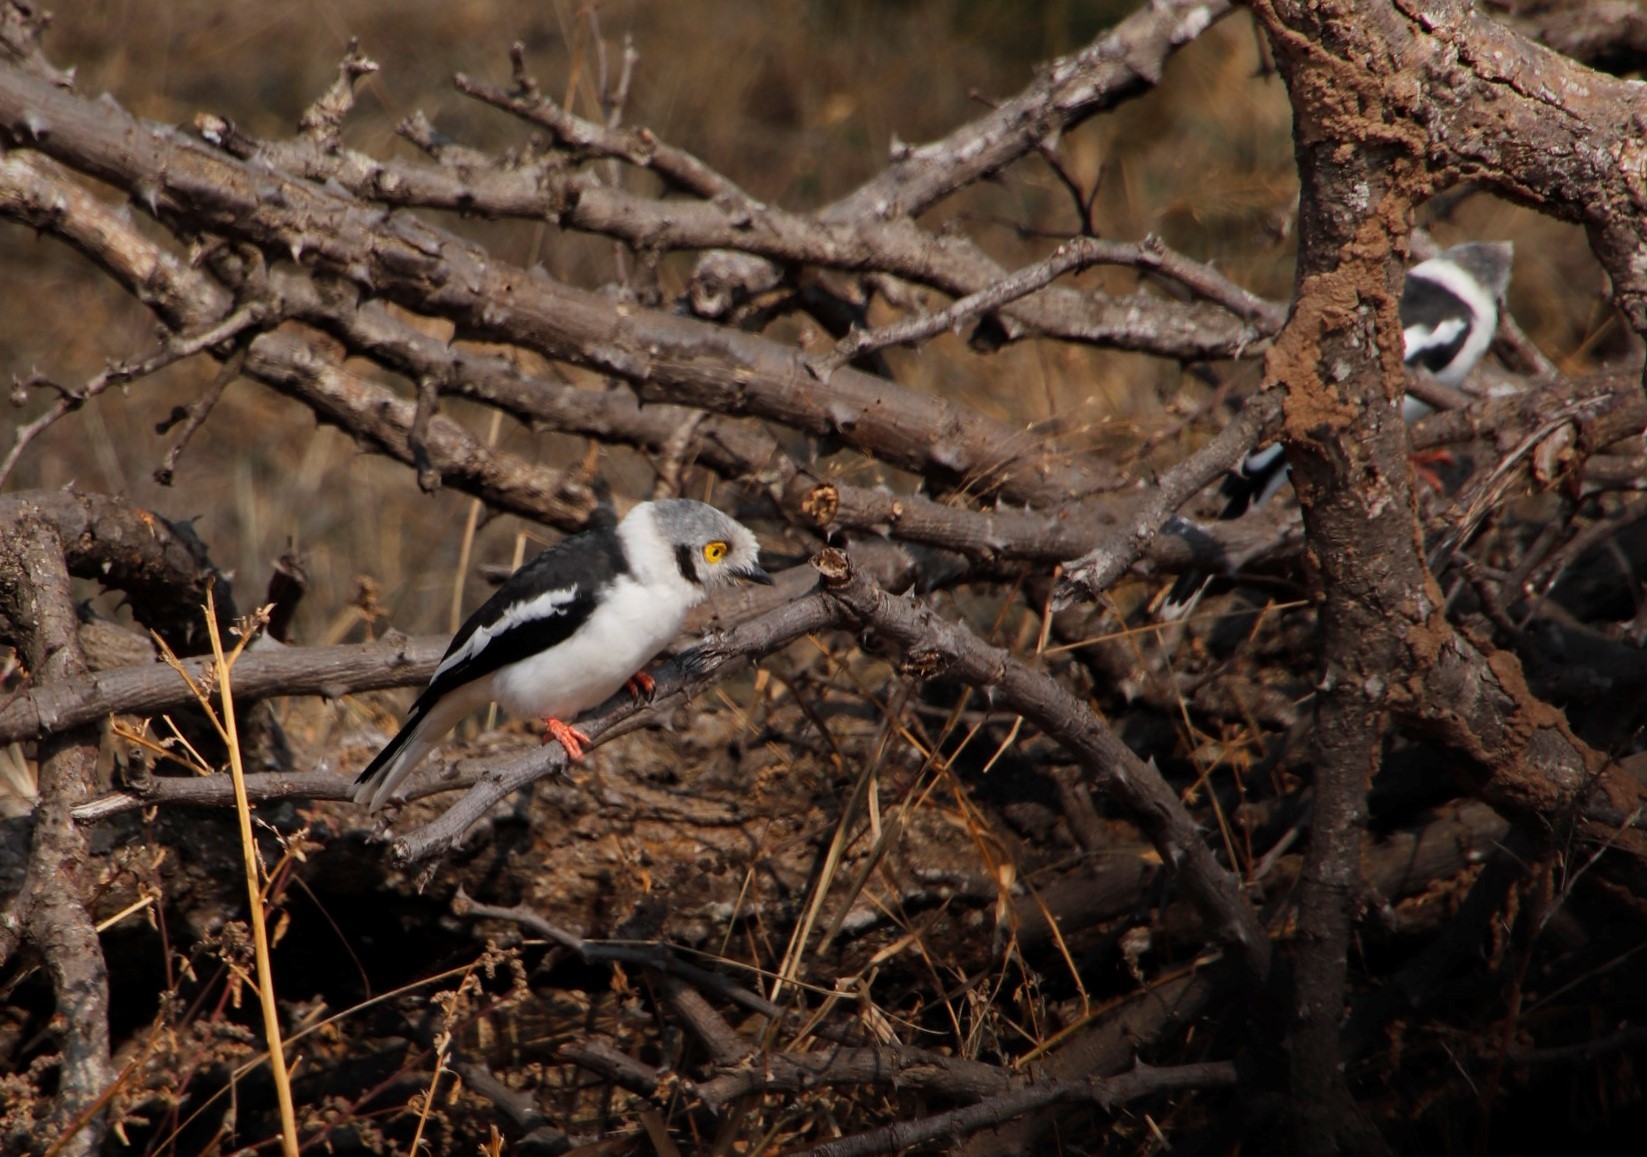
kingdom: Animalia
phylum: Chordata
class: Aves
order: Passeriformes
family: Prionopidae
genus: Prionops
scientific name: Prionops plumatus
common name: White-crested helmetshrike
